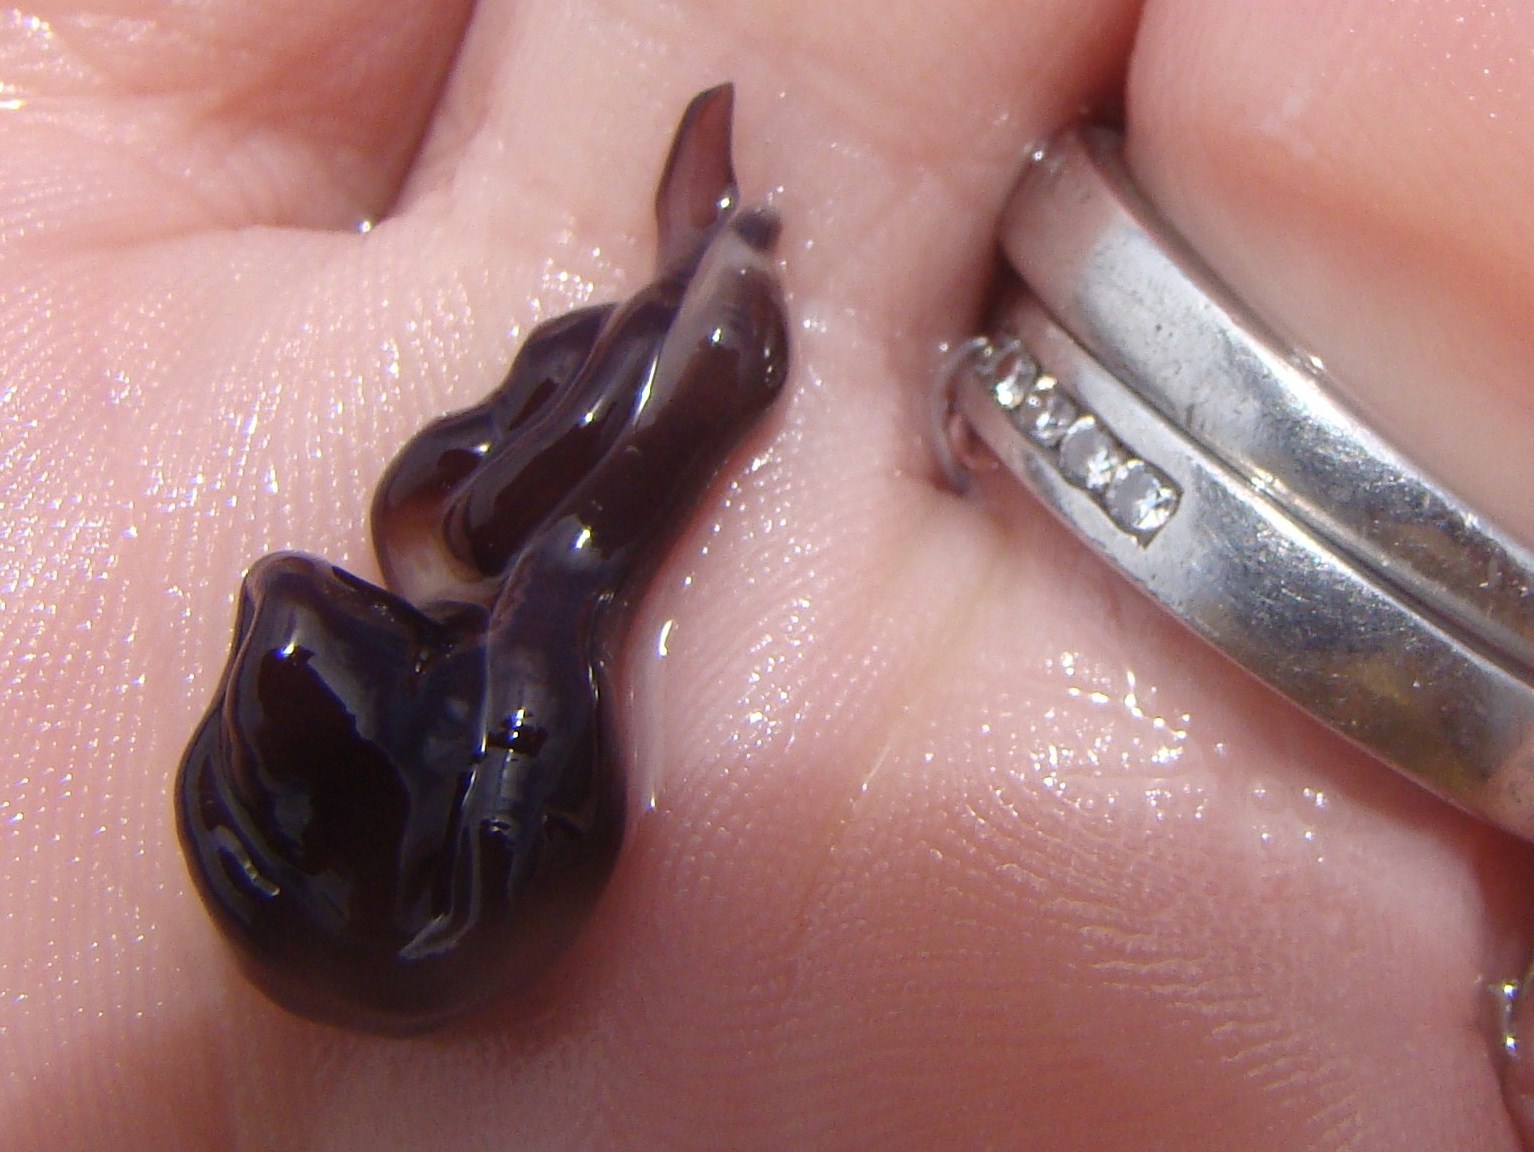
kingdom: Animalia
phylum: Nemertea
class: Hoplonemertea
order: Monostilifera
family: Neesiidae
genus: Noteonemertes
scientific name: Noteonemertes novaezealandiae
